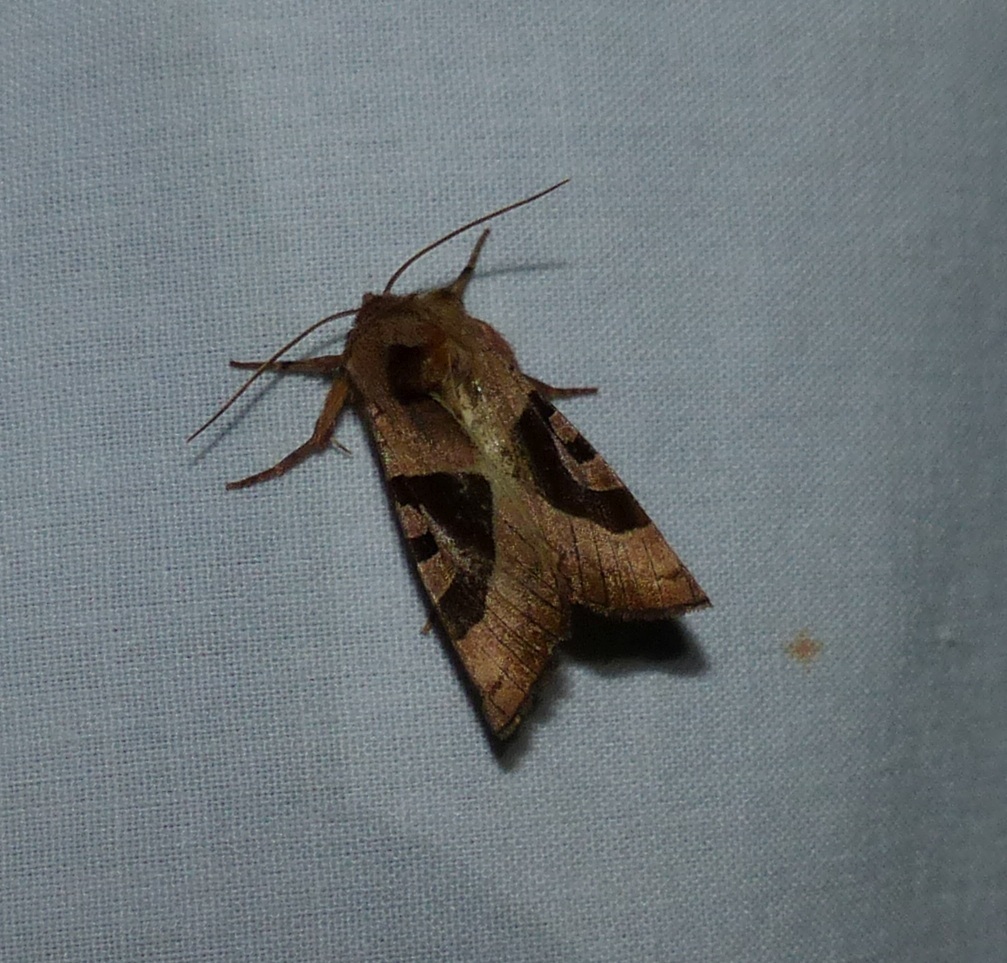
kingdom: Animalia
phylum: Arthropoda
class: Insecta
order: Lepidoptera
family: Noctuidae
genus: Conservula
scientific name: Conservula anodonta
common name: Sharp angle shades
